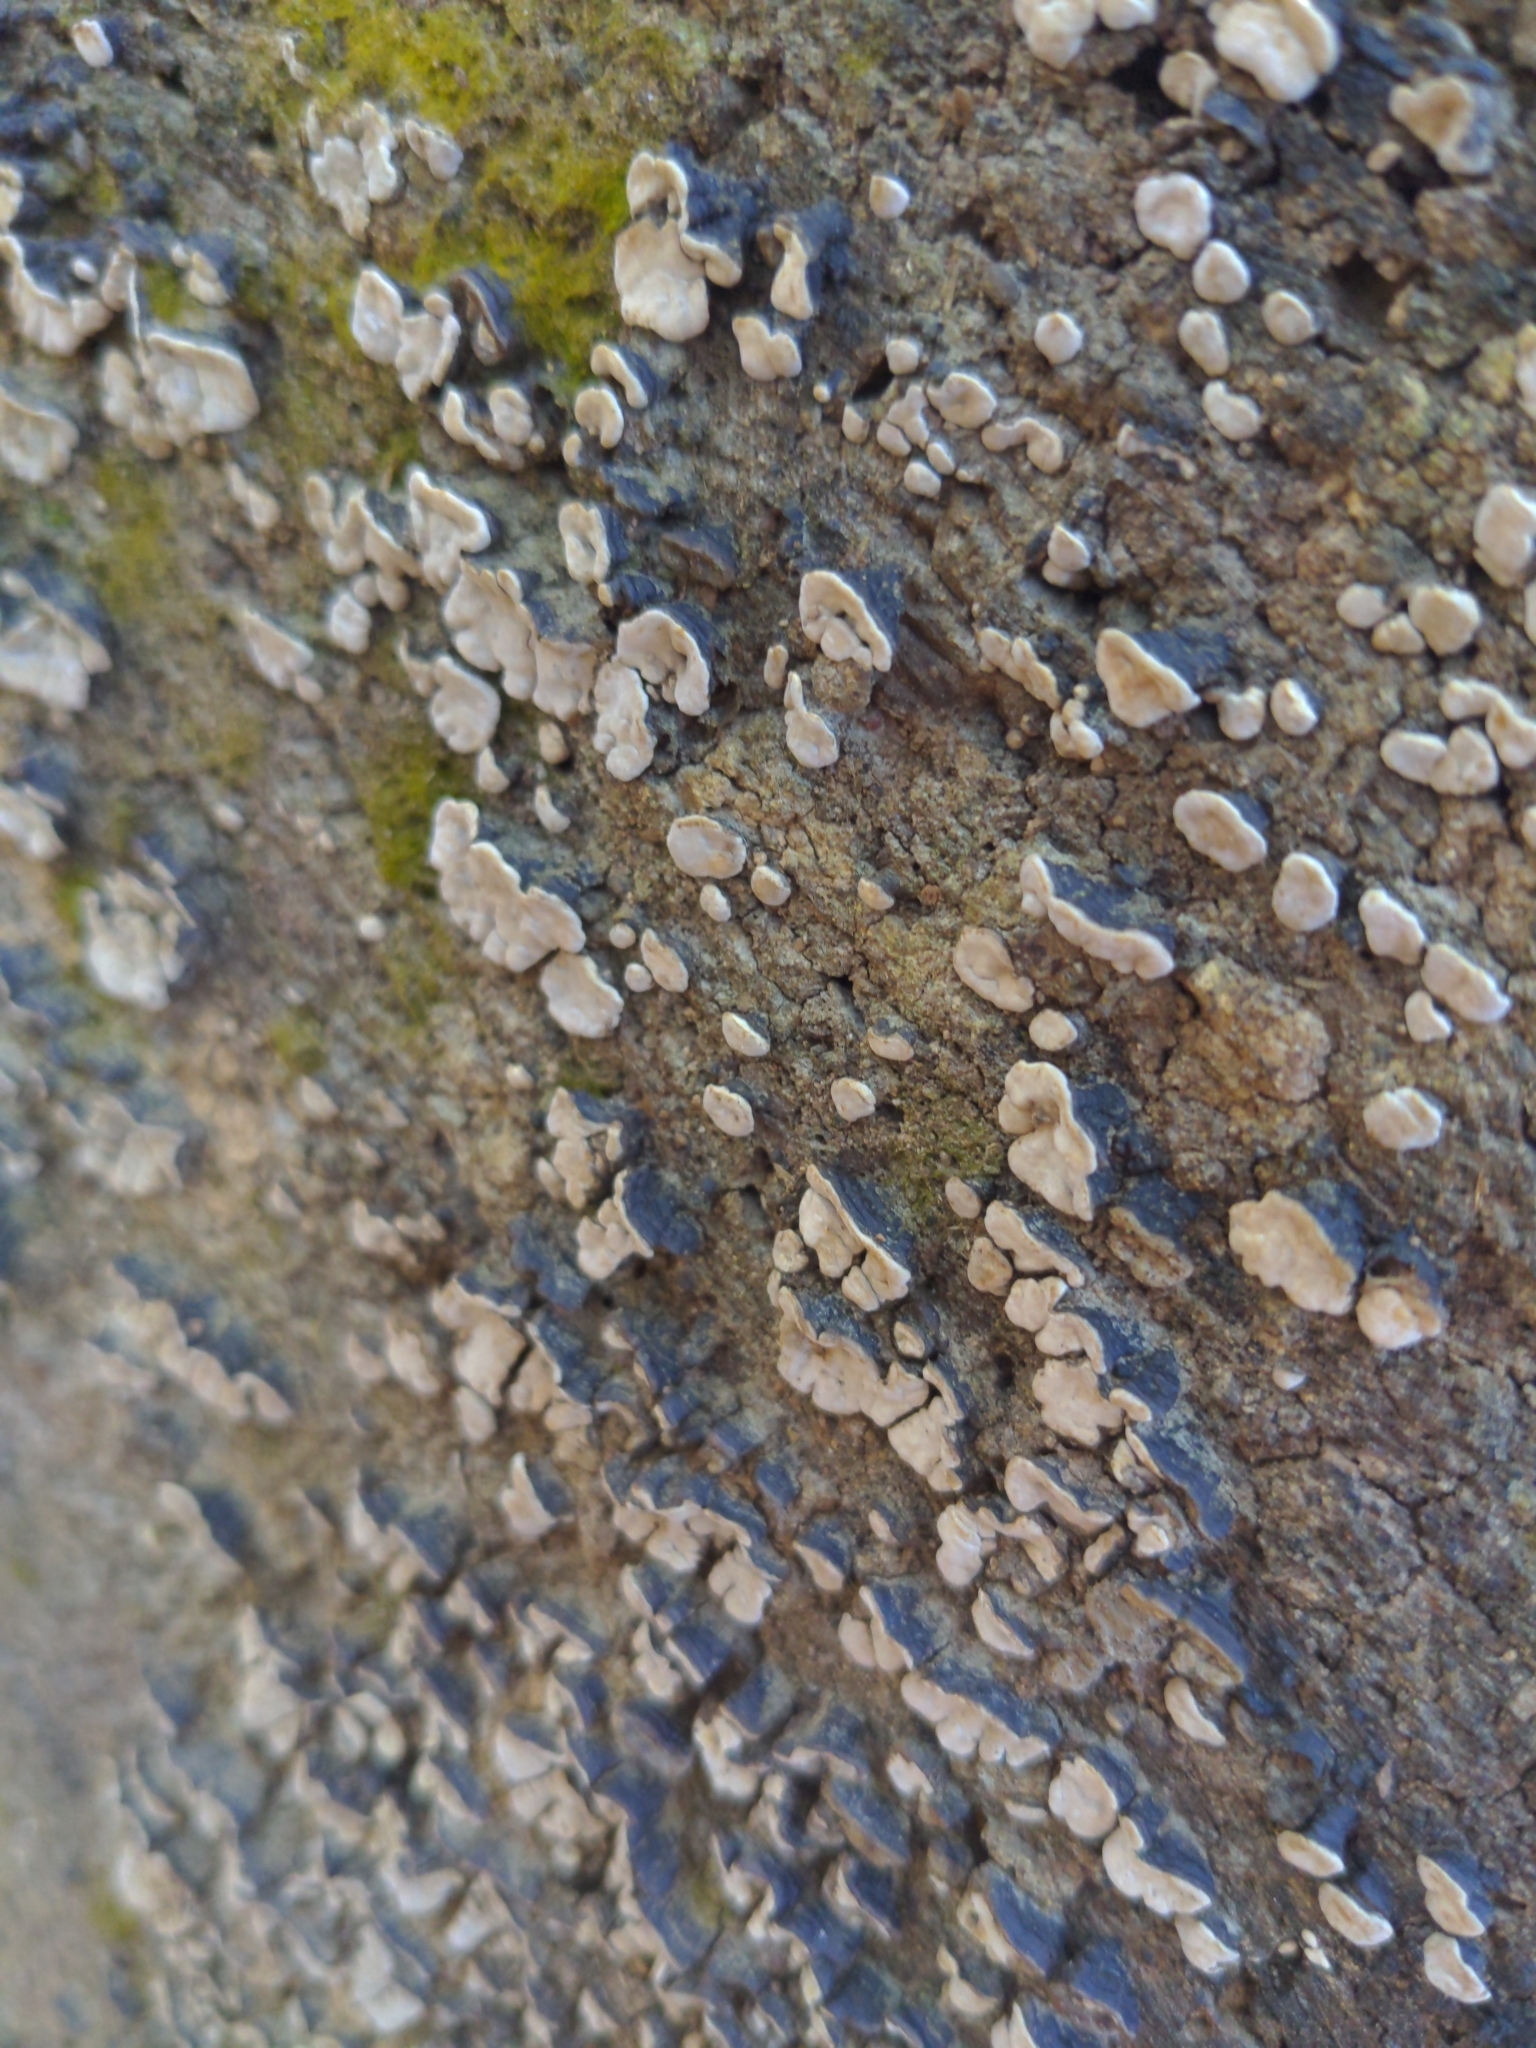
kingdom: Fungi
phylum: Basidiomycota
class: Agaricomycetes
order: Russulales
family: Stereaceae
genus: Xylobolus
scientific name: Xylobolus frustulatus
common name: Ceramic parchment
